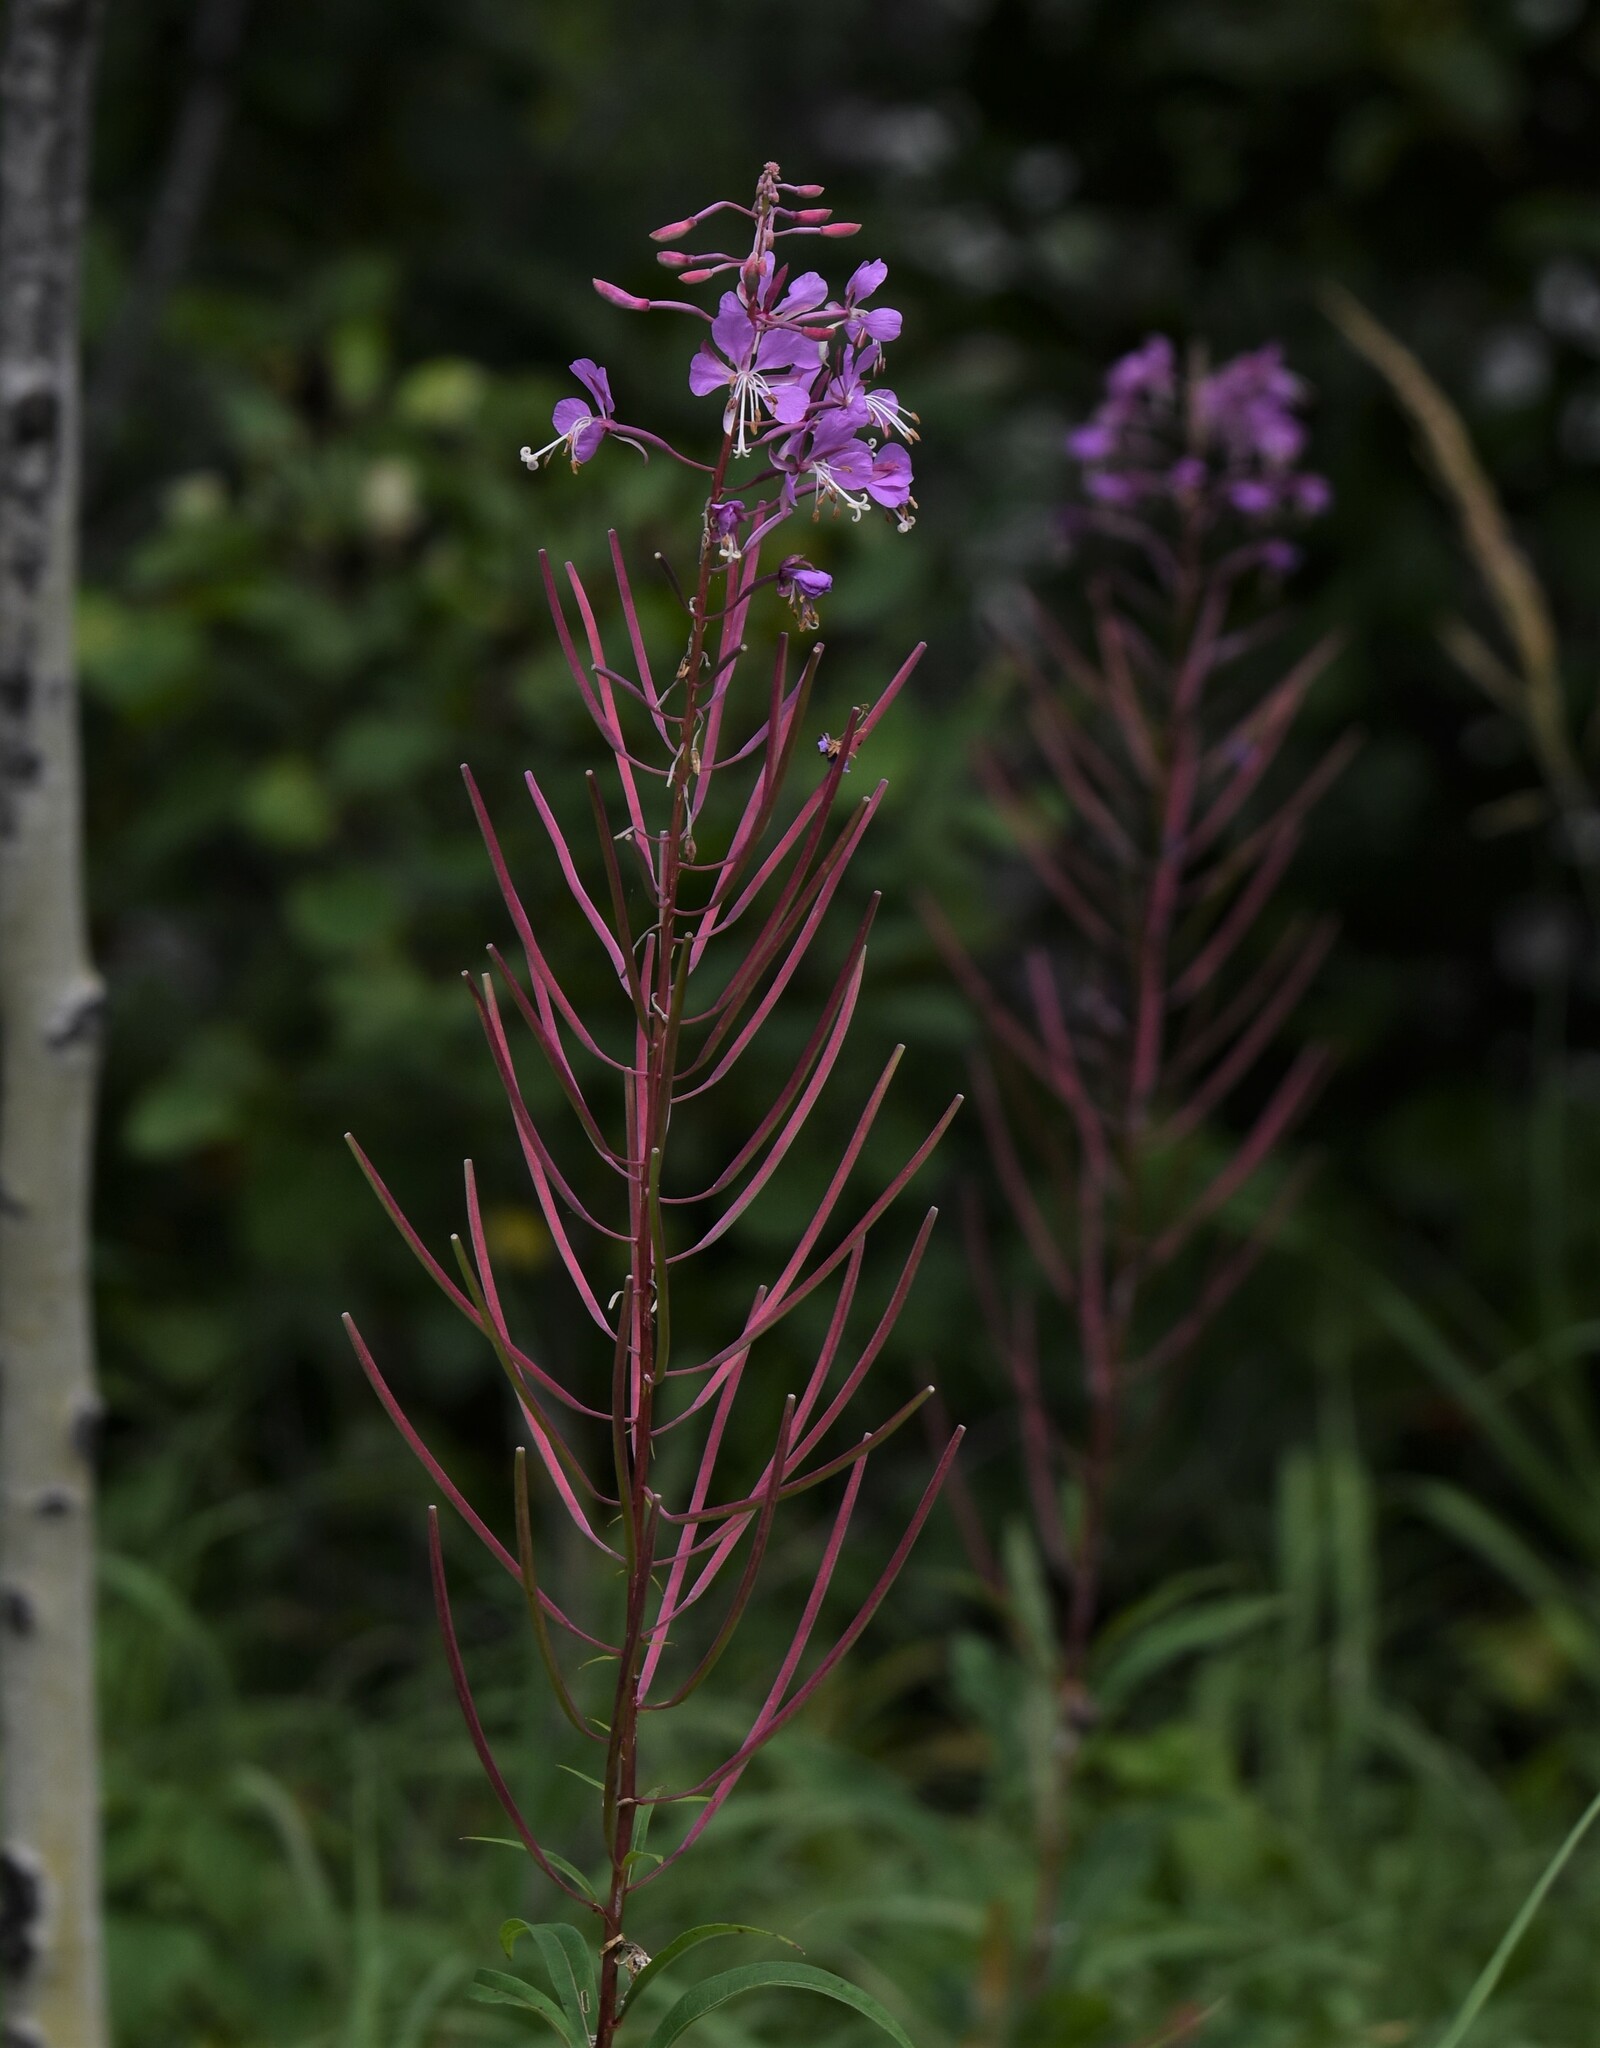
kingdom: Plantae
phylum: Tracheophyta
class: Magnoliopsida
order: Myrtales
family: Onagraceae
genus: Chamaenerion
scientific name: Chamaenerion angustifolium
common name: Fireweed
